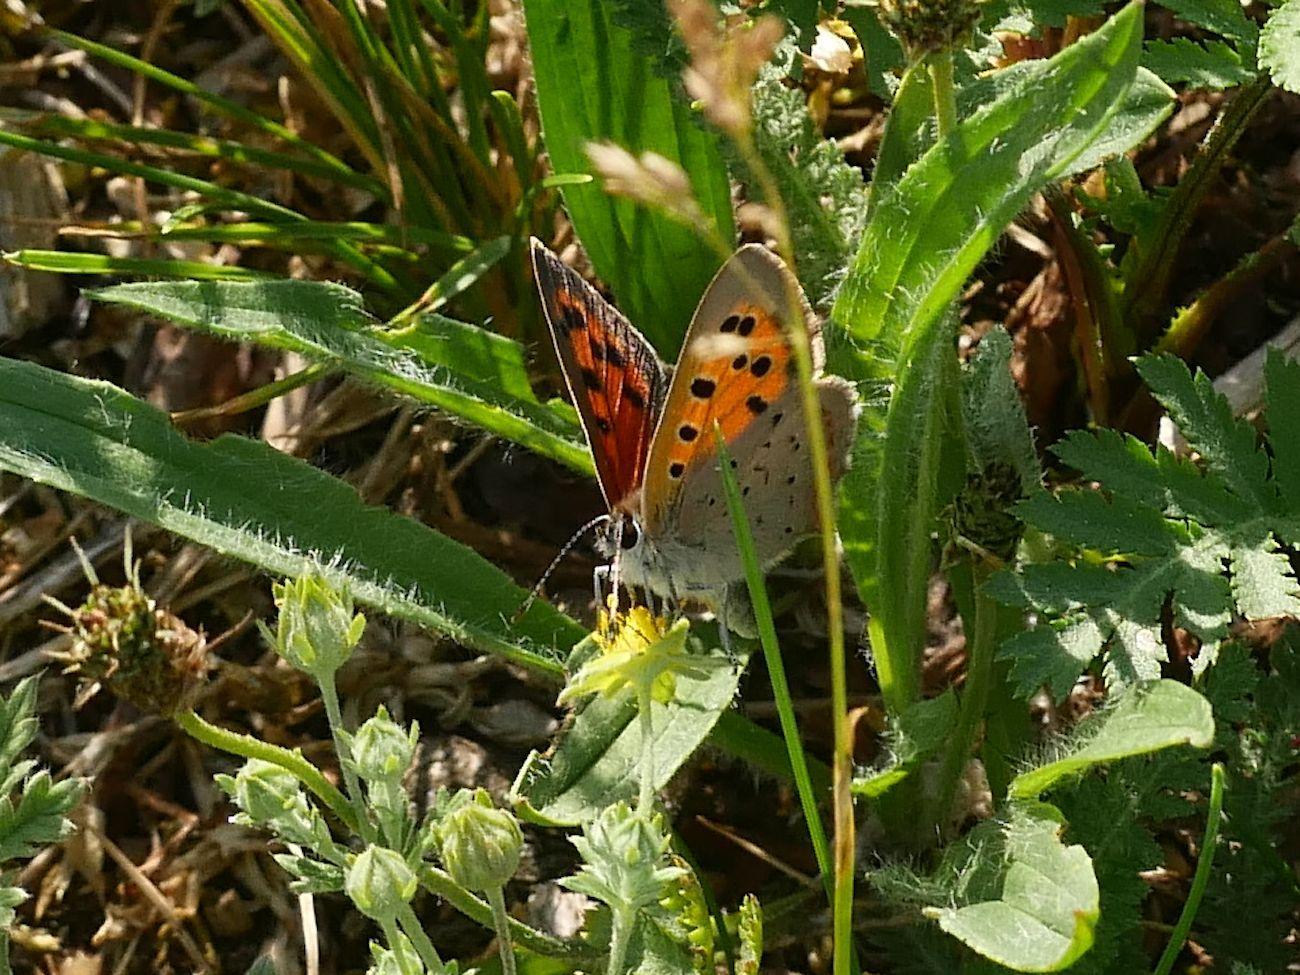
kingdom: Animalia
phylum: Arthropoda
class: Insecta
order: Lepidoptera
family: Lycaenidae
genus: Lycaena
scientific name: Lycaena phlaeas
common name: Small copper
